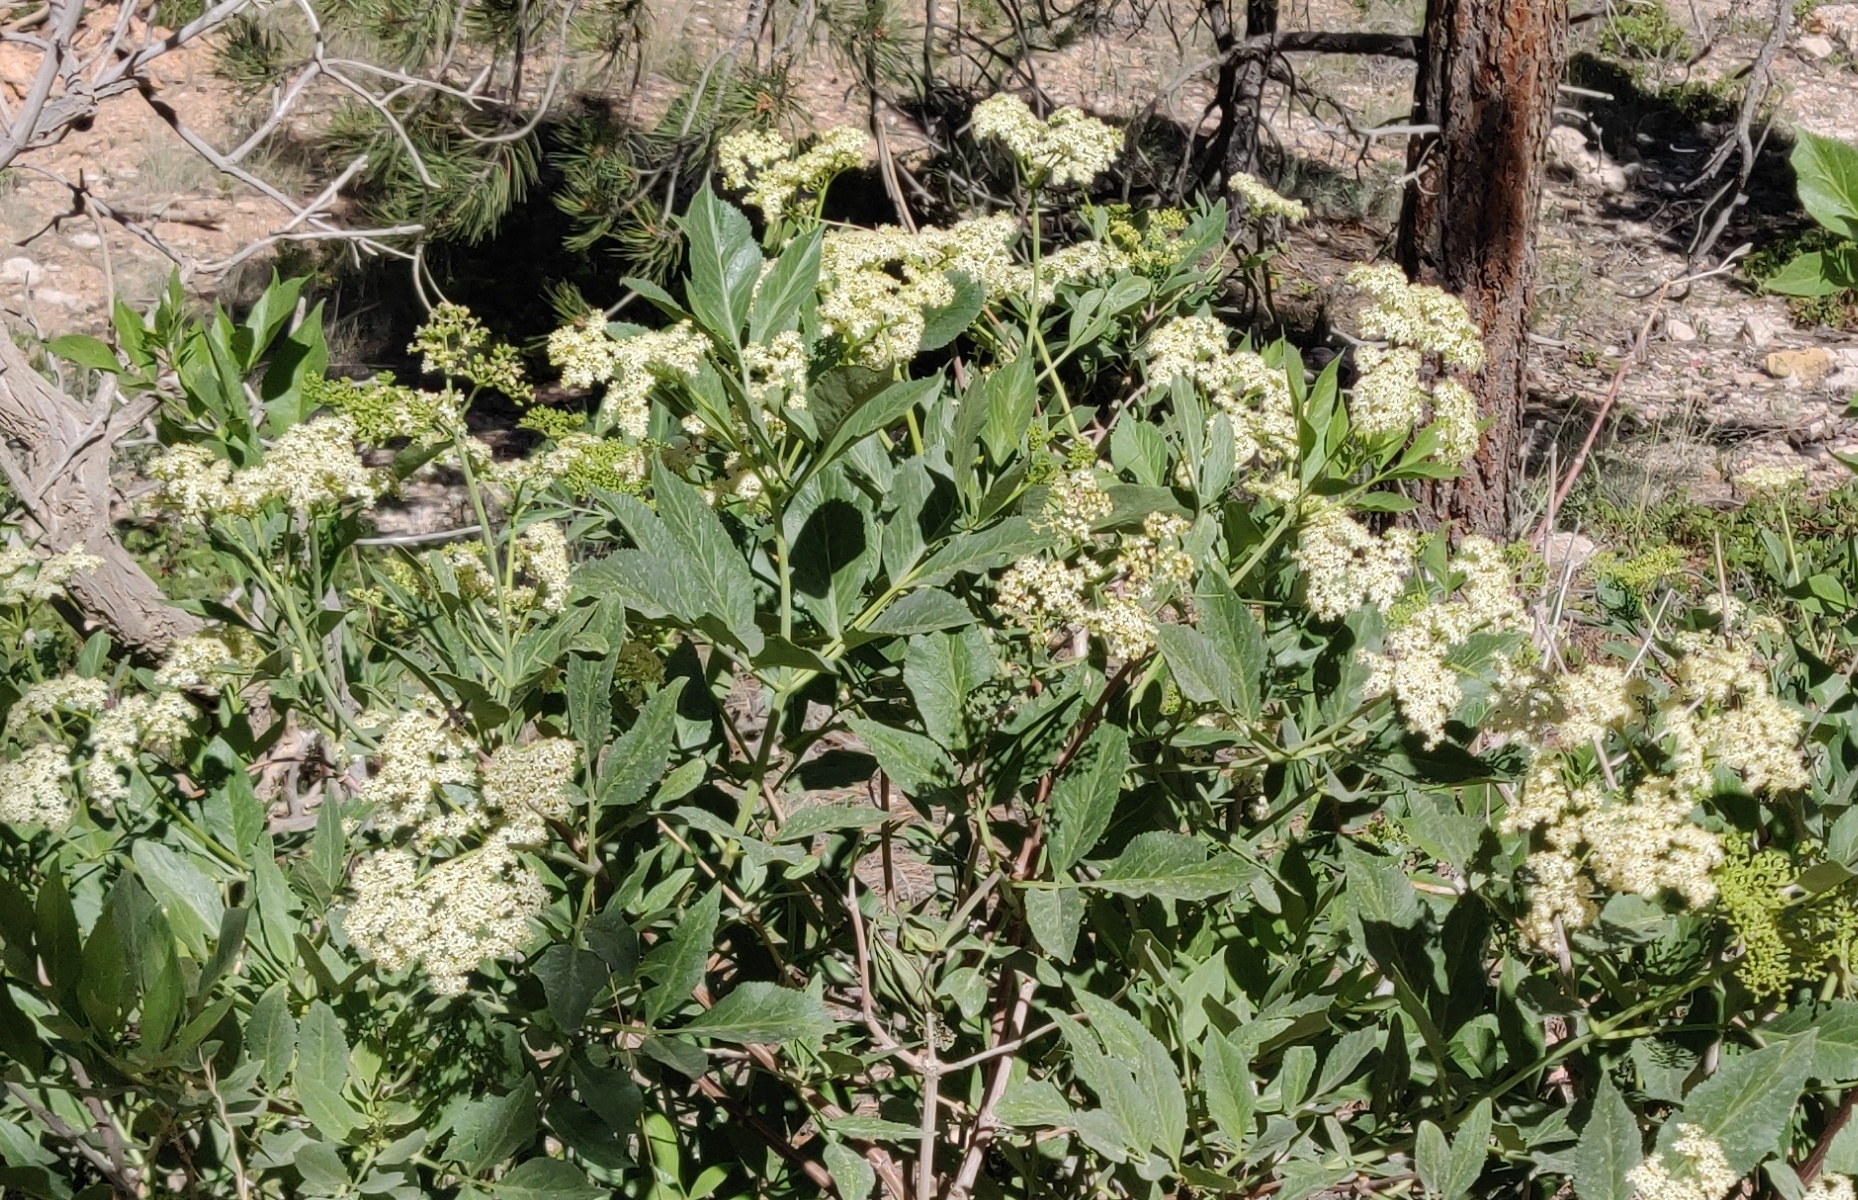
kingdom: Plantae
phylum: Tracheophyta
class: Magnoliopsida
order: Dipsacales
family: Viburnaceae
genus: Sambucus
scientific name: Sambucus cerulea
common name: Blue elder
